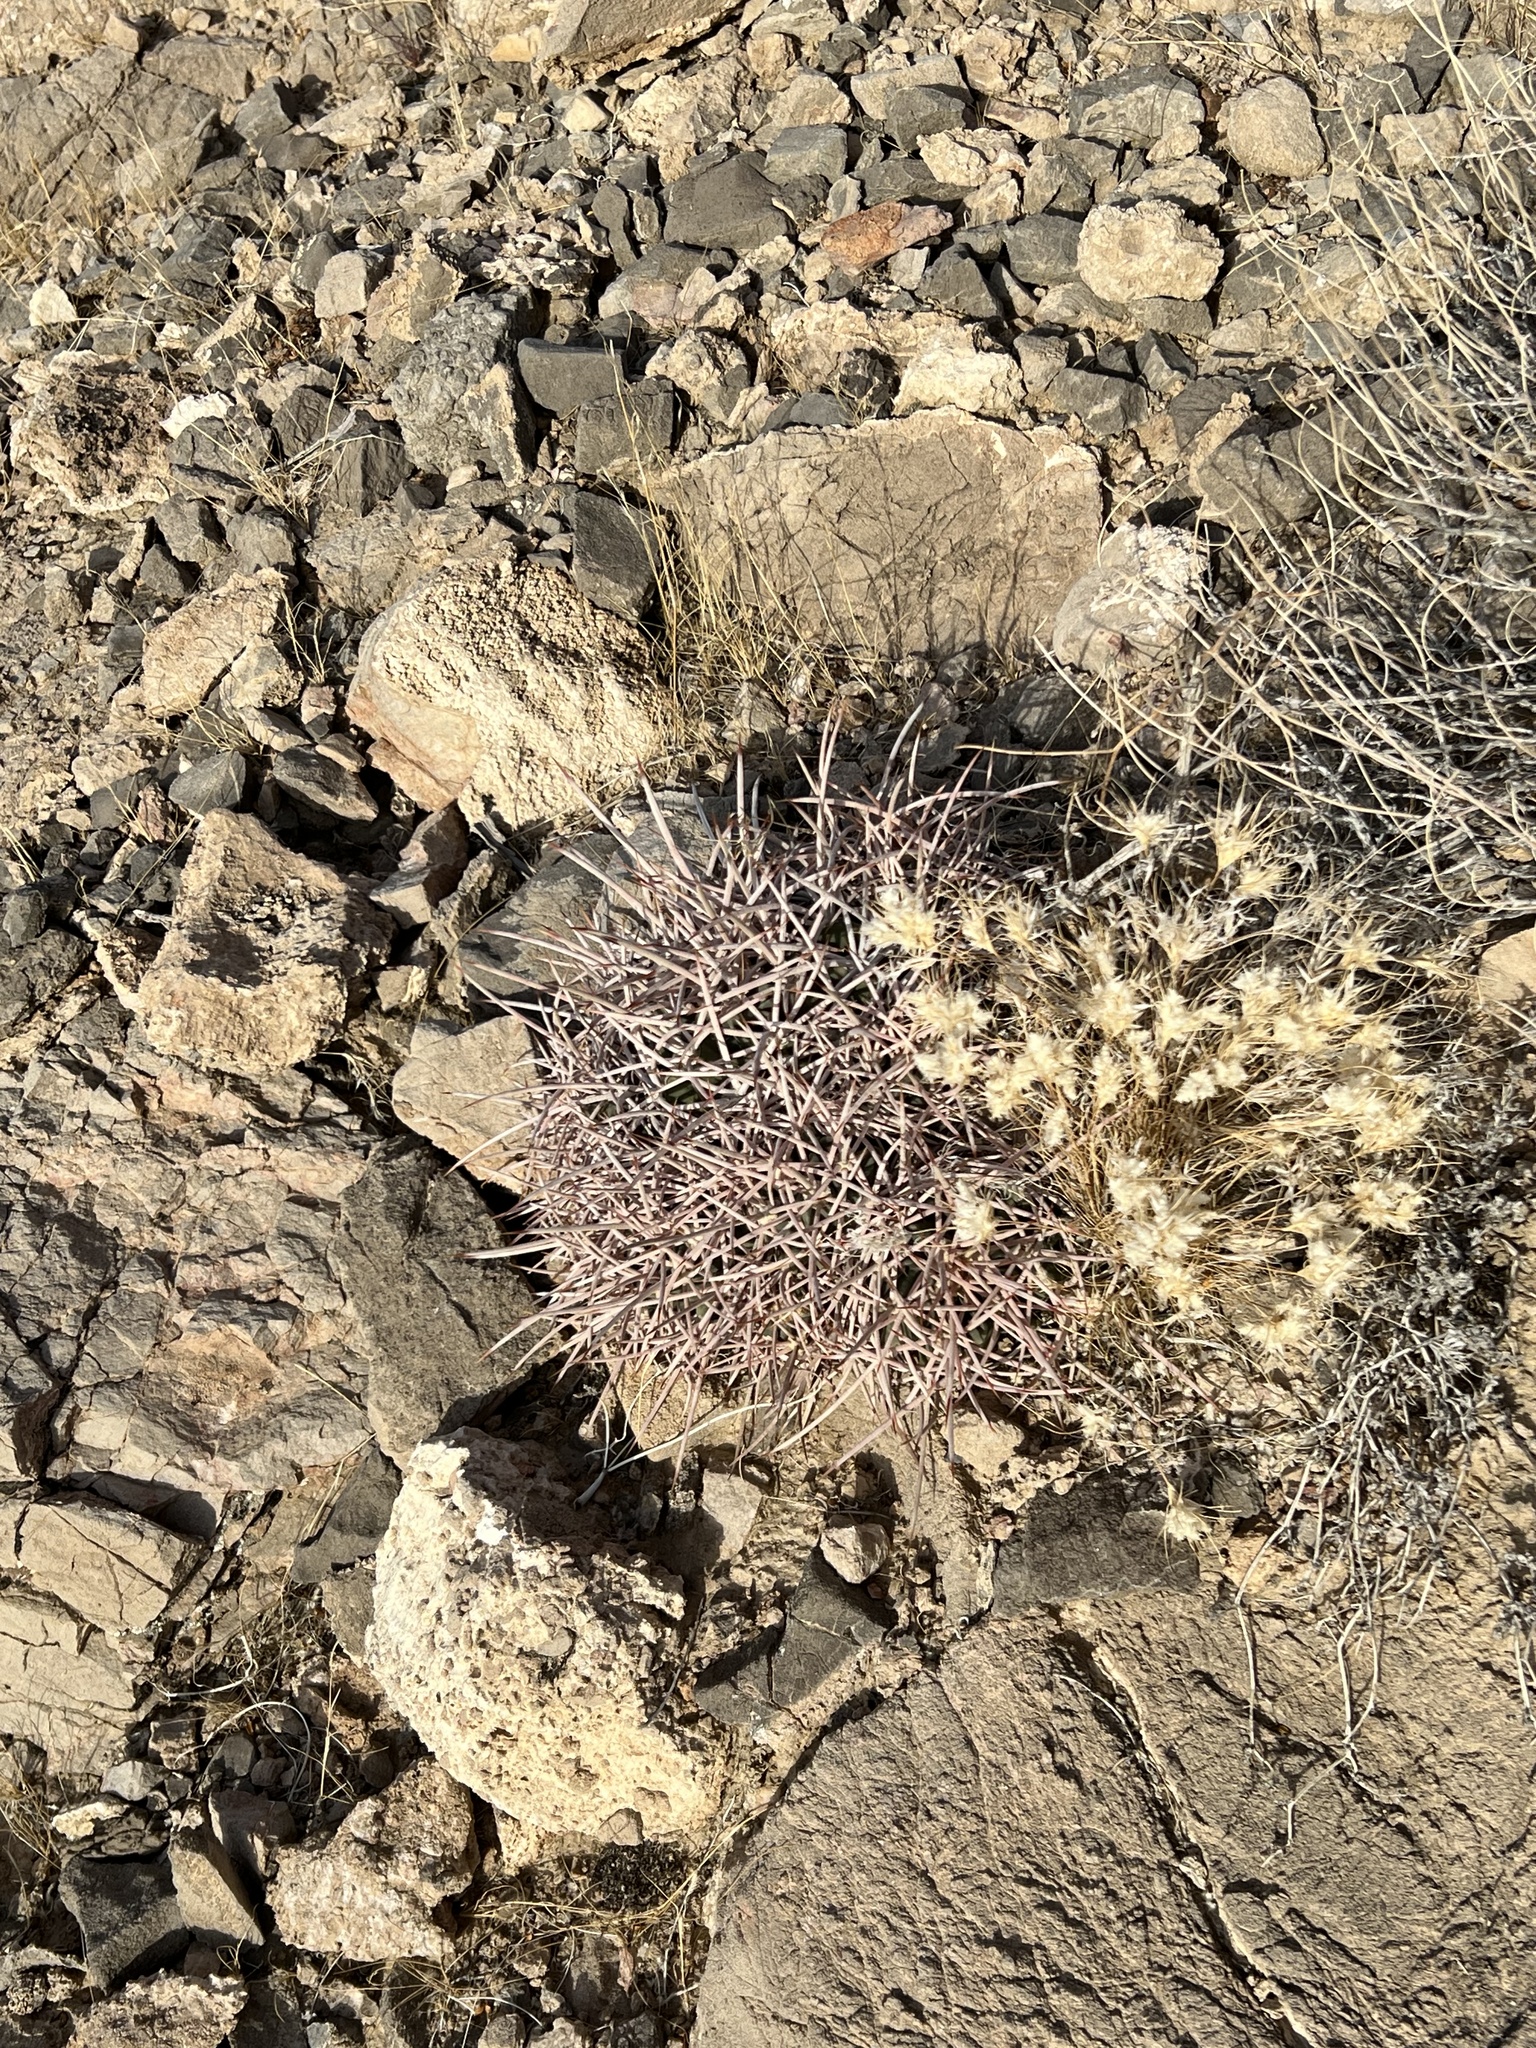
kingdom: Plantae
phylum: Tracheophyta
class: Magnoliopsida
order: Caryophyllales
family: Cactaceae
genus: Echinocactus
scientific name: Echinocactus polycephalus
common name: Cottontop cactus
